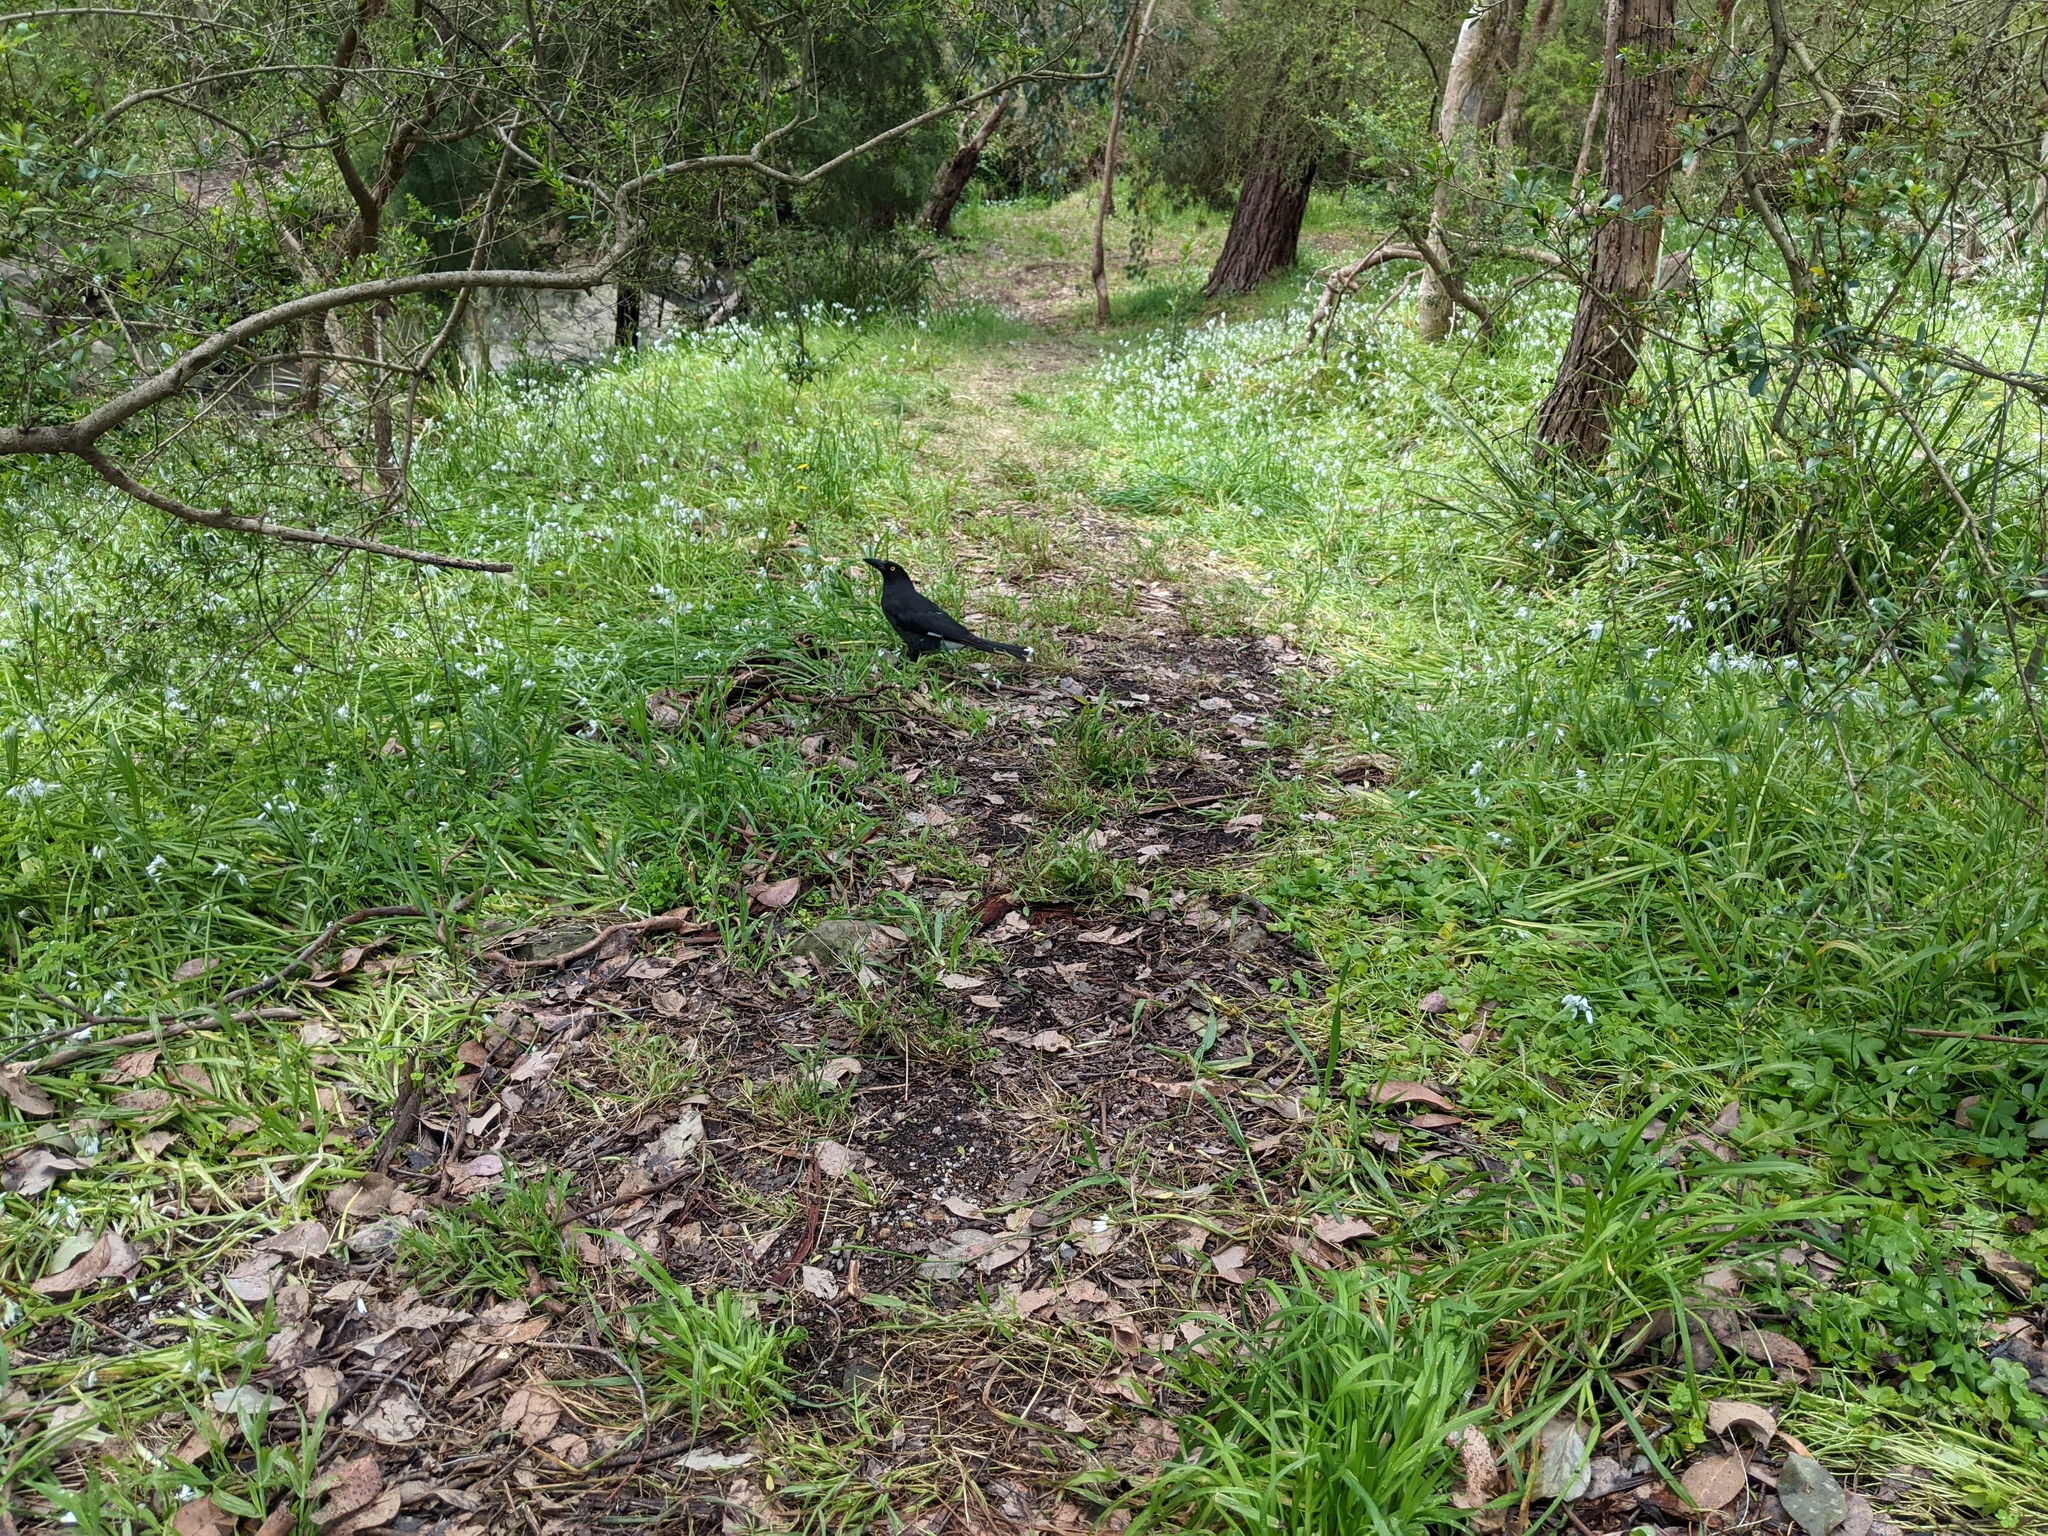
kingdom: Animalia
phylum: Chordata
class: Aves
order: Passeriformes
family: Cracticidae
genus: Strepera
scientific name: Strepera graculina
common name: Pied currawong
